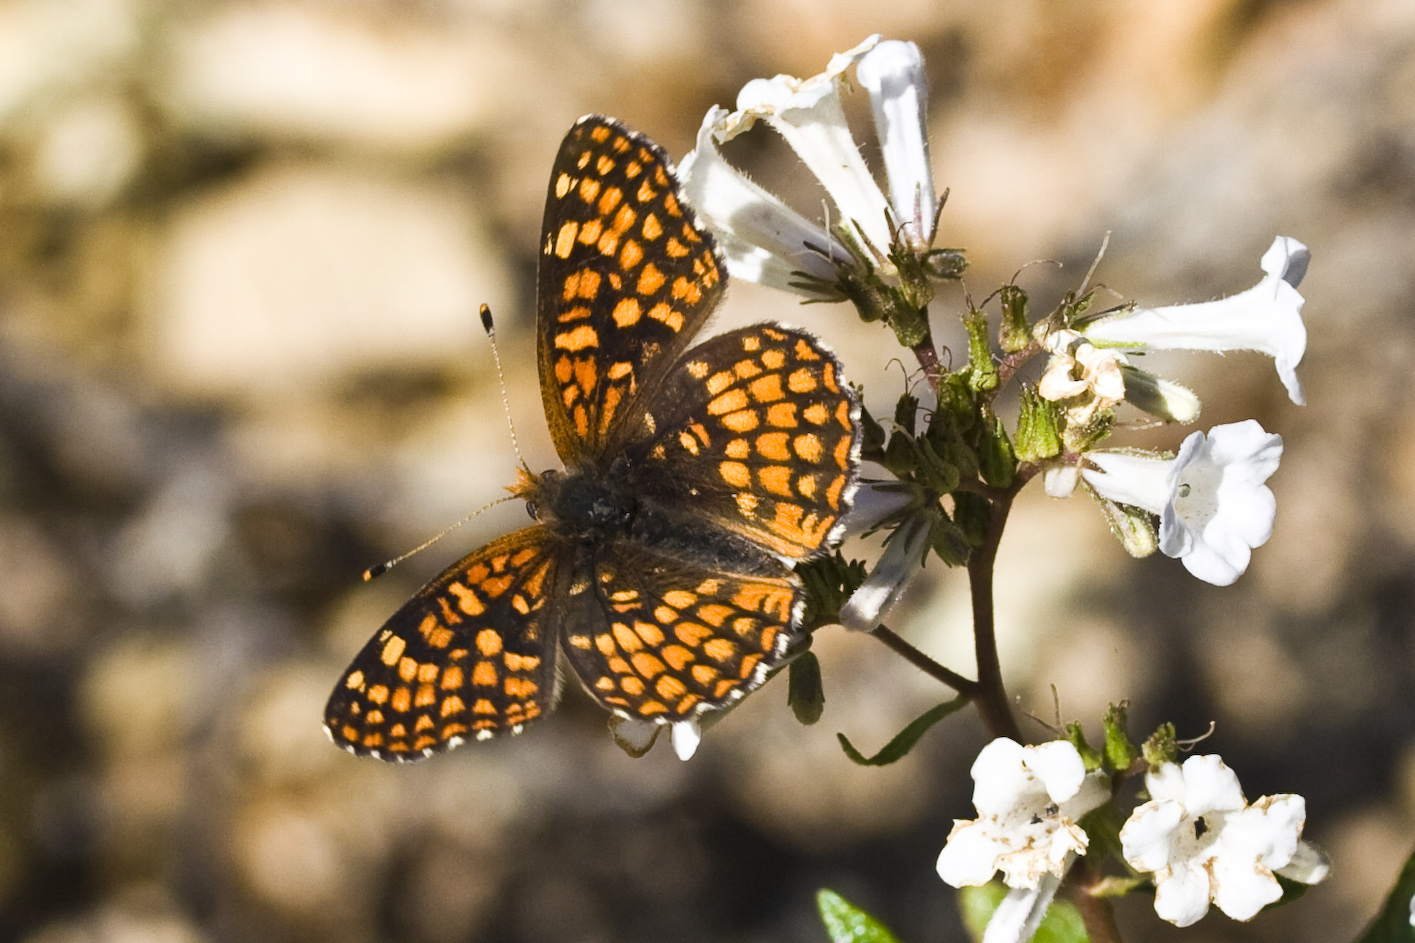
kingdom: Animalia
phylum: Arthropoda
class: Insecta
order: Lepidoptera
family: Nymphalidae
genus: Chlosyne
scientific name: Chlosyne palla
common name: Northern checkerspot
